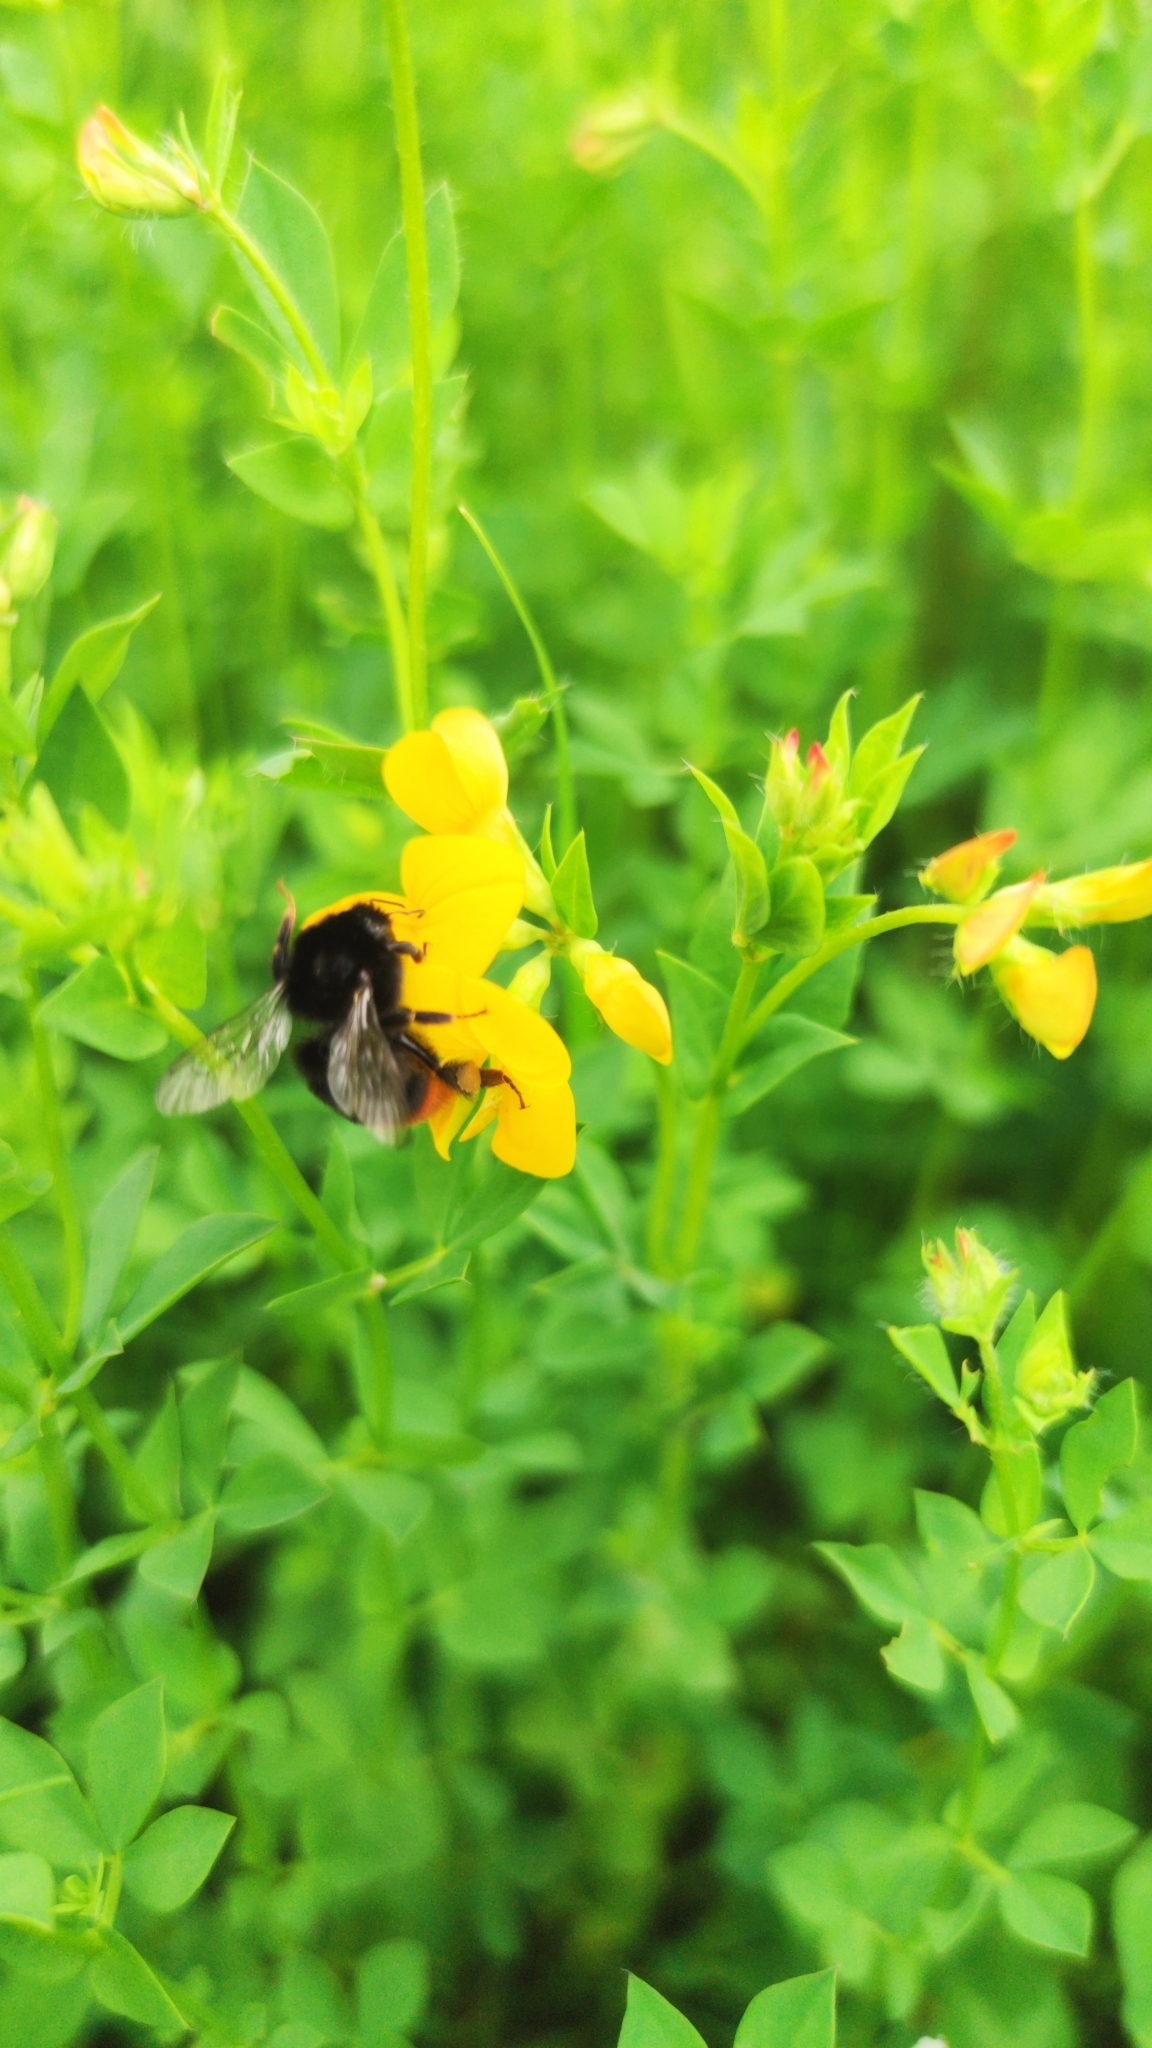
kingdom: Animalia
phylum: Arthropoda
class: Insecta
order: Hymenoptera
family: Apidae
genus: Bombus
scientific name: Bombus lapidarius
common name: Large red-tailed humble-bee
